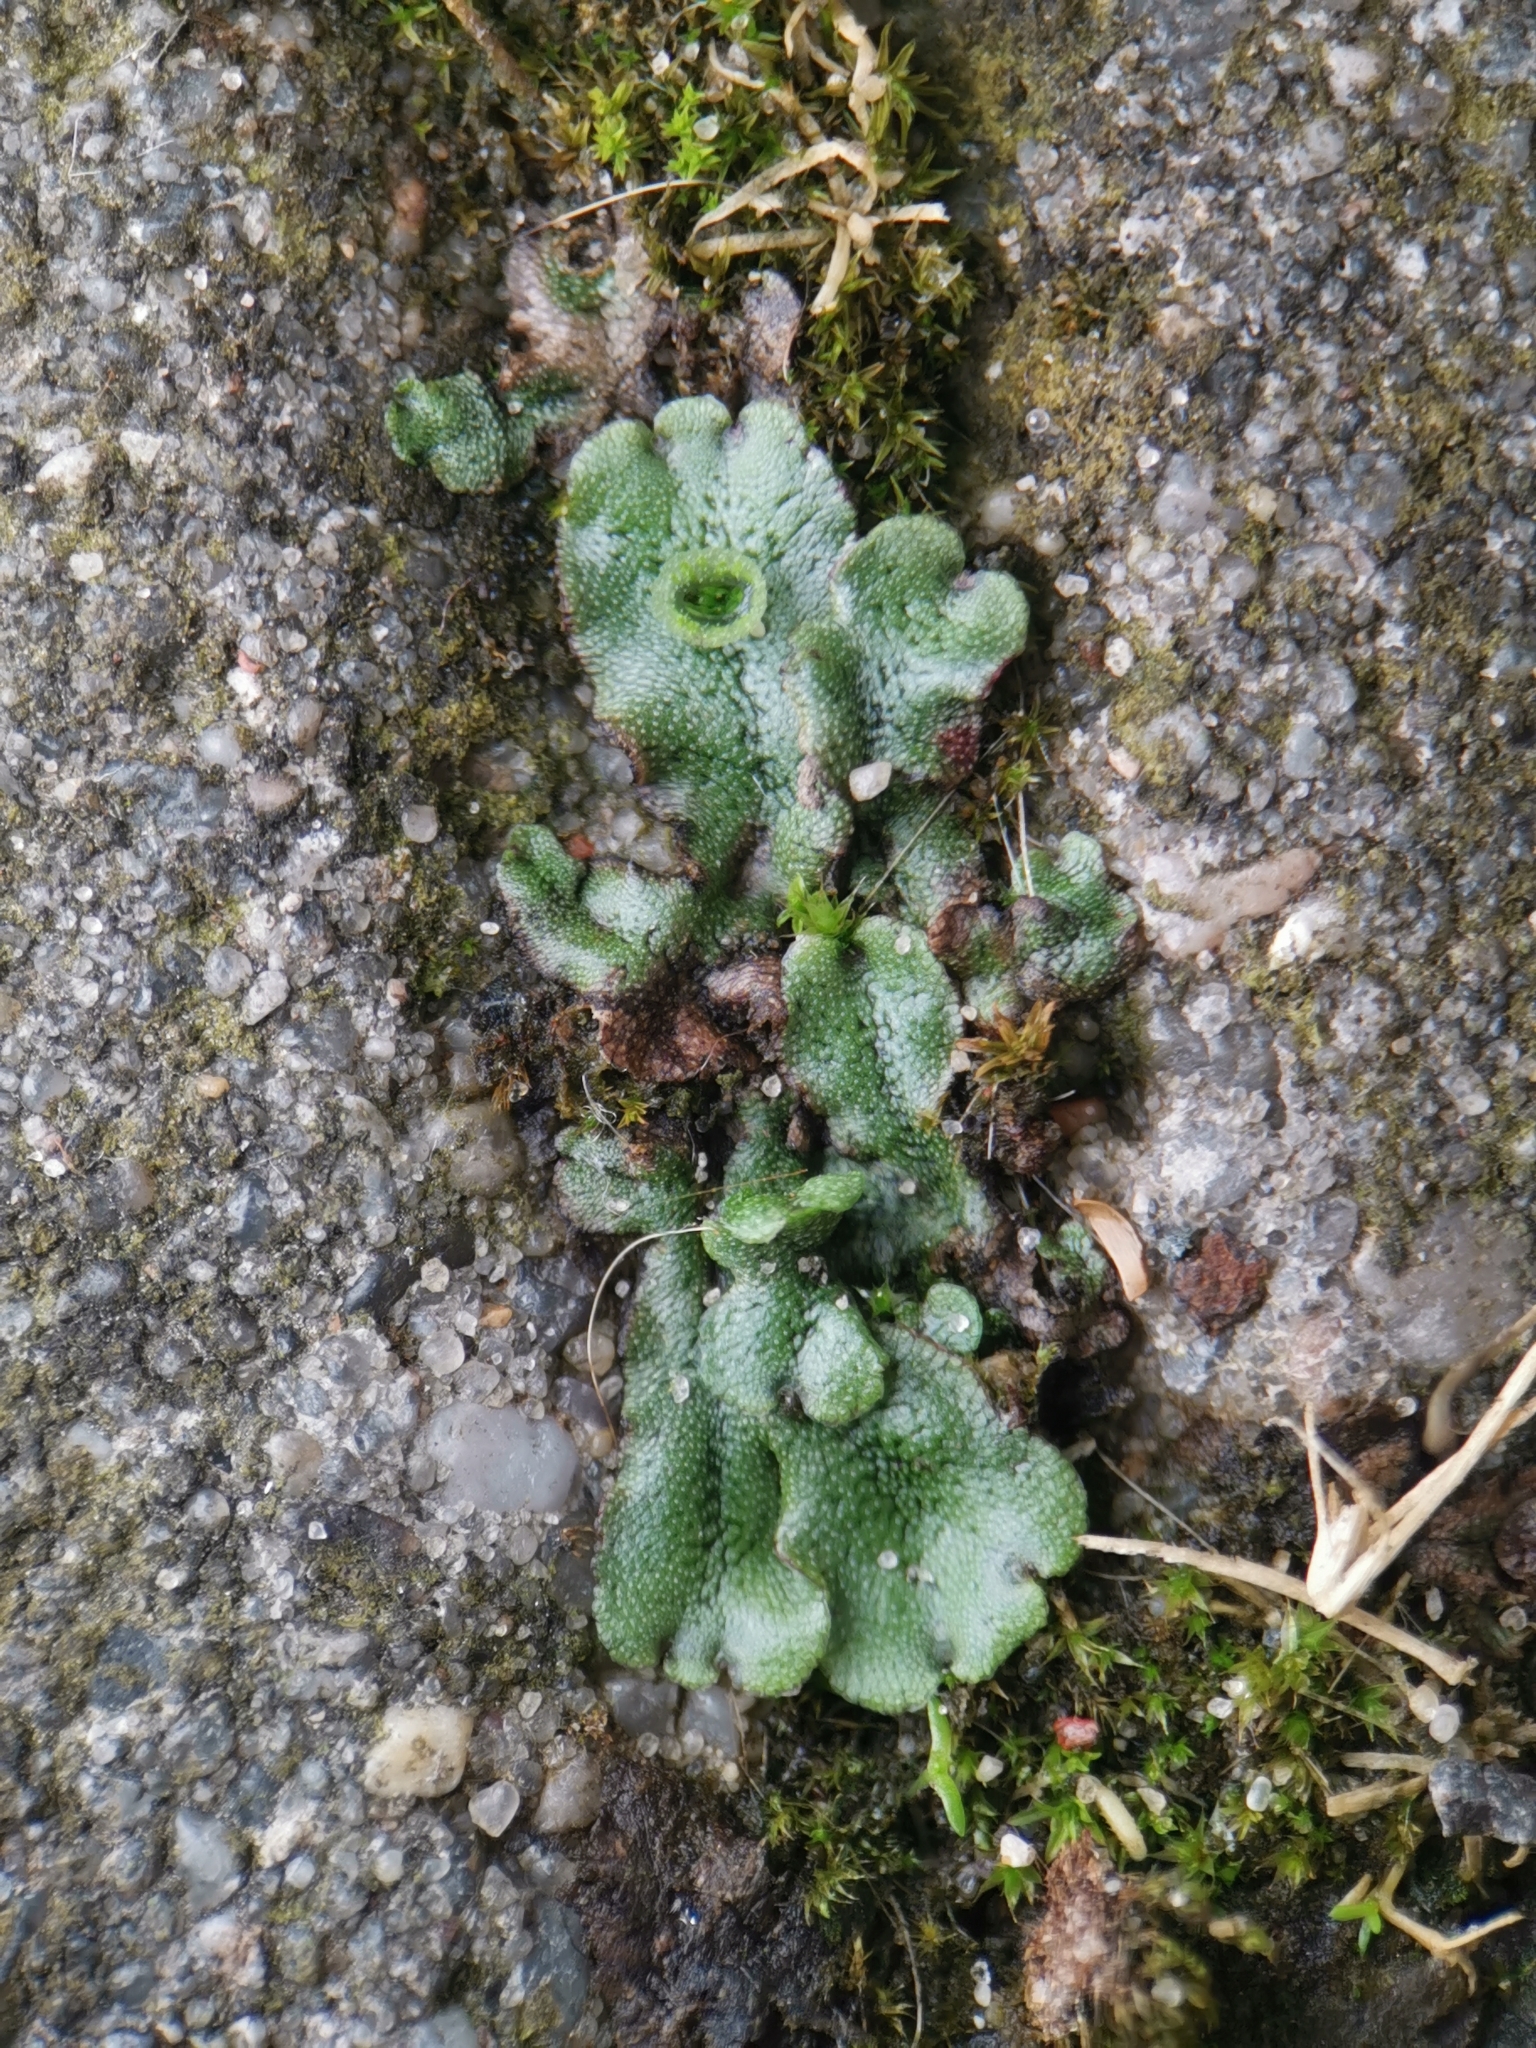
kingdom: Plantae
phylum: Marchantiophyta
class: Marchantiopsida
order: Marchantiales
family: Marchantiaceae
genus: Marchantia
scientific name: Marchantia polymorpha
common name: Common liverwort
